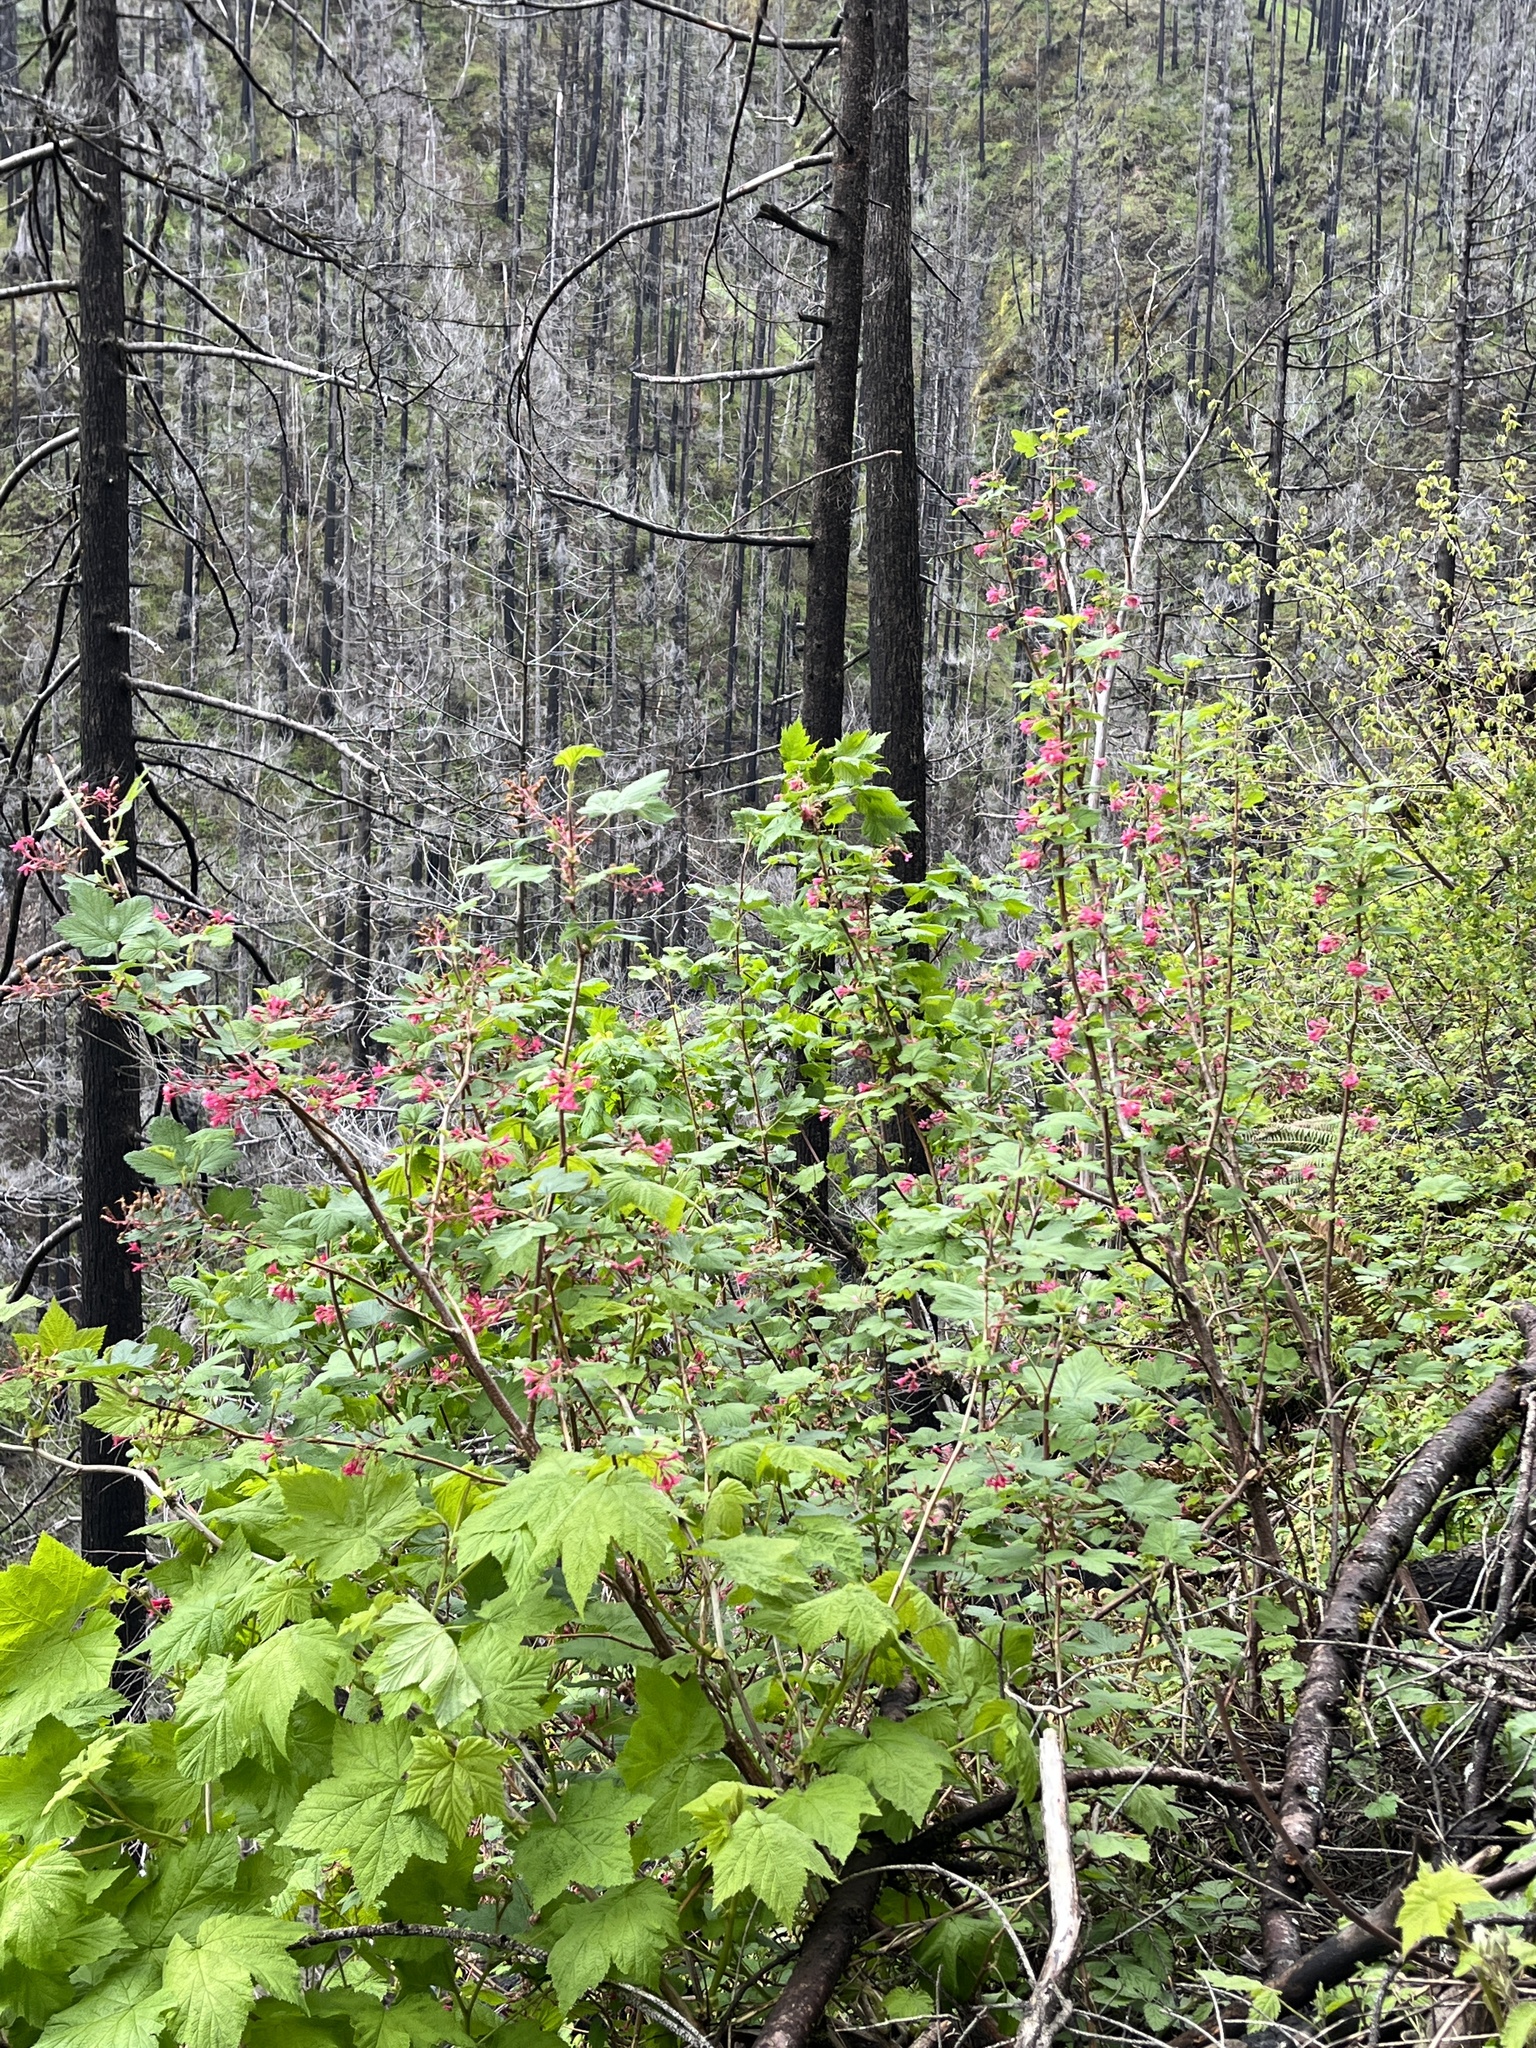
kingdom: Plantae
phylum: Tracheophyta
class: Magnoliopsida
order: Saxifragales
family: Grossulariaceae
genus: Ribes
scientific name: Ribes sanguineum
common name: Flowering currant
